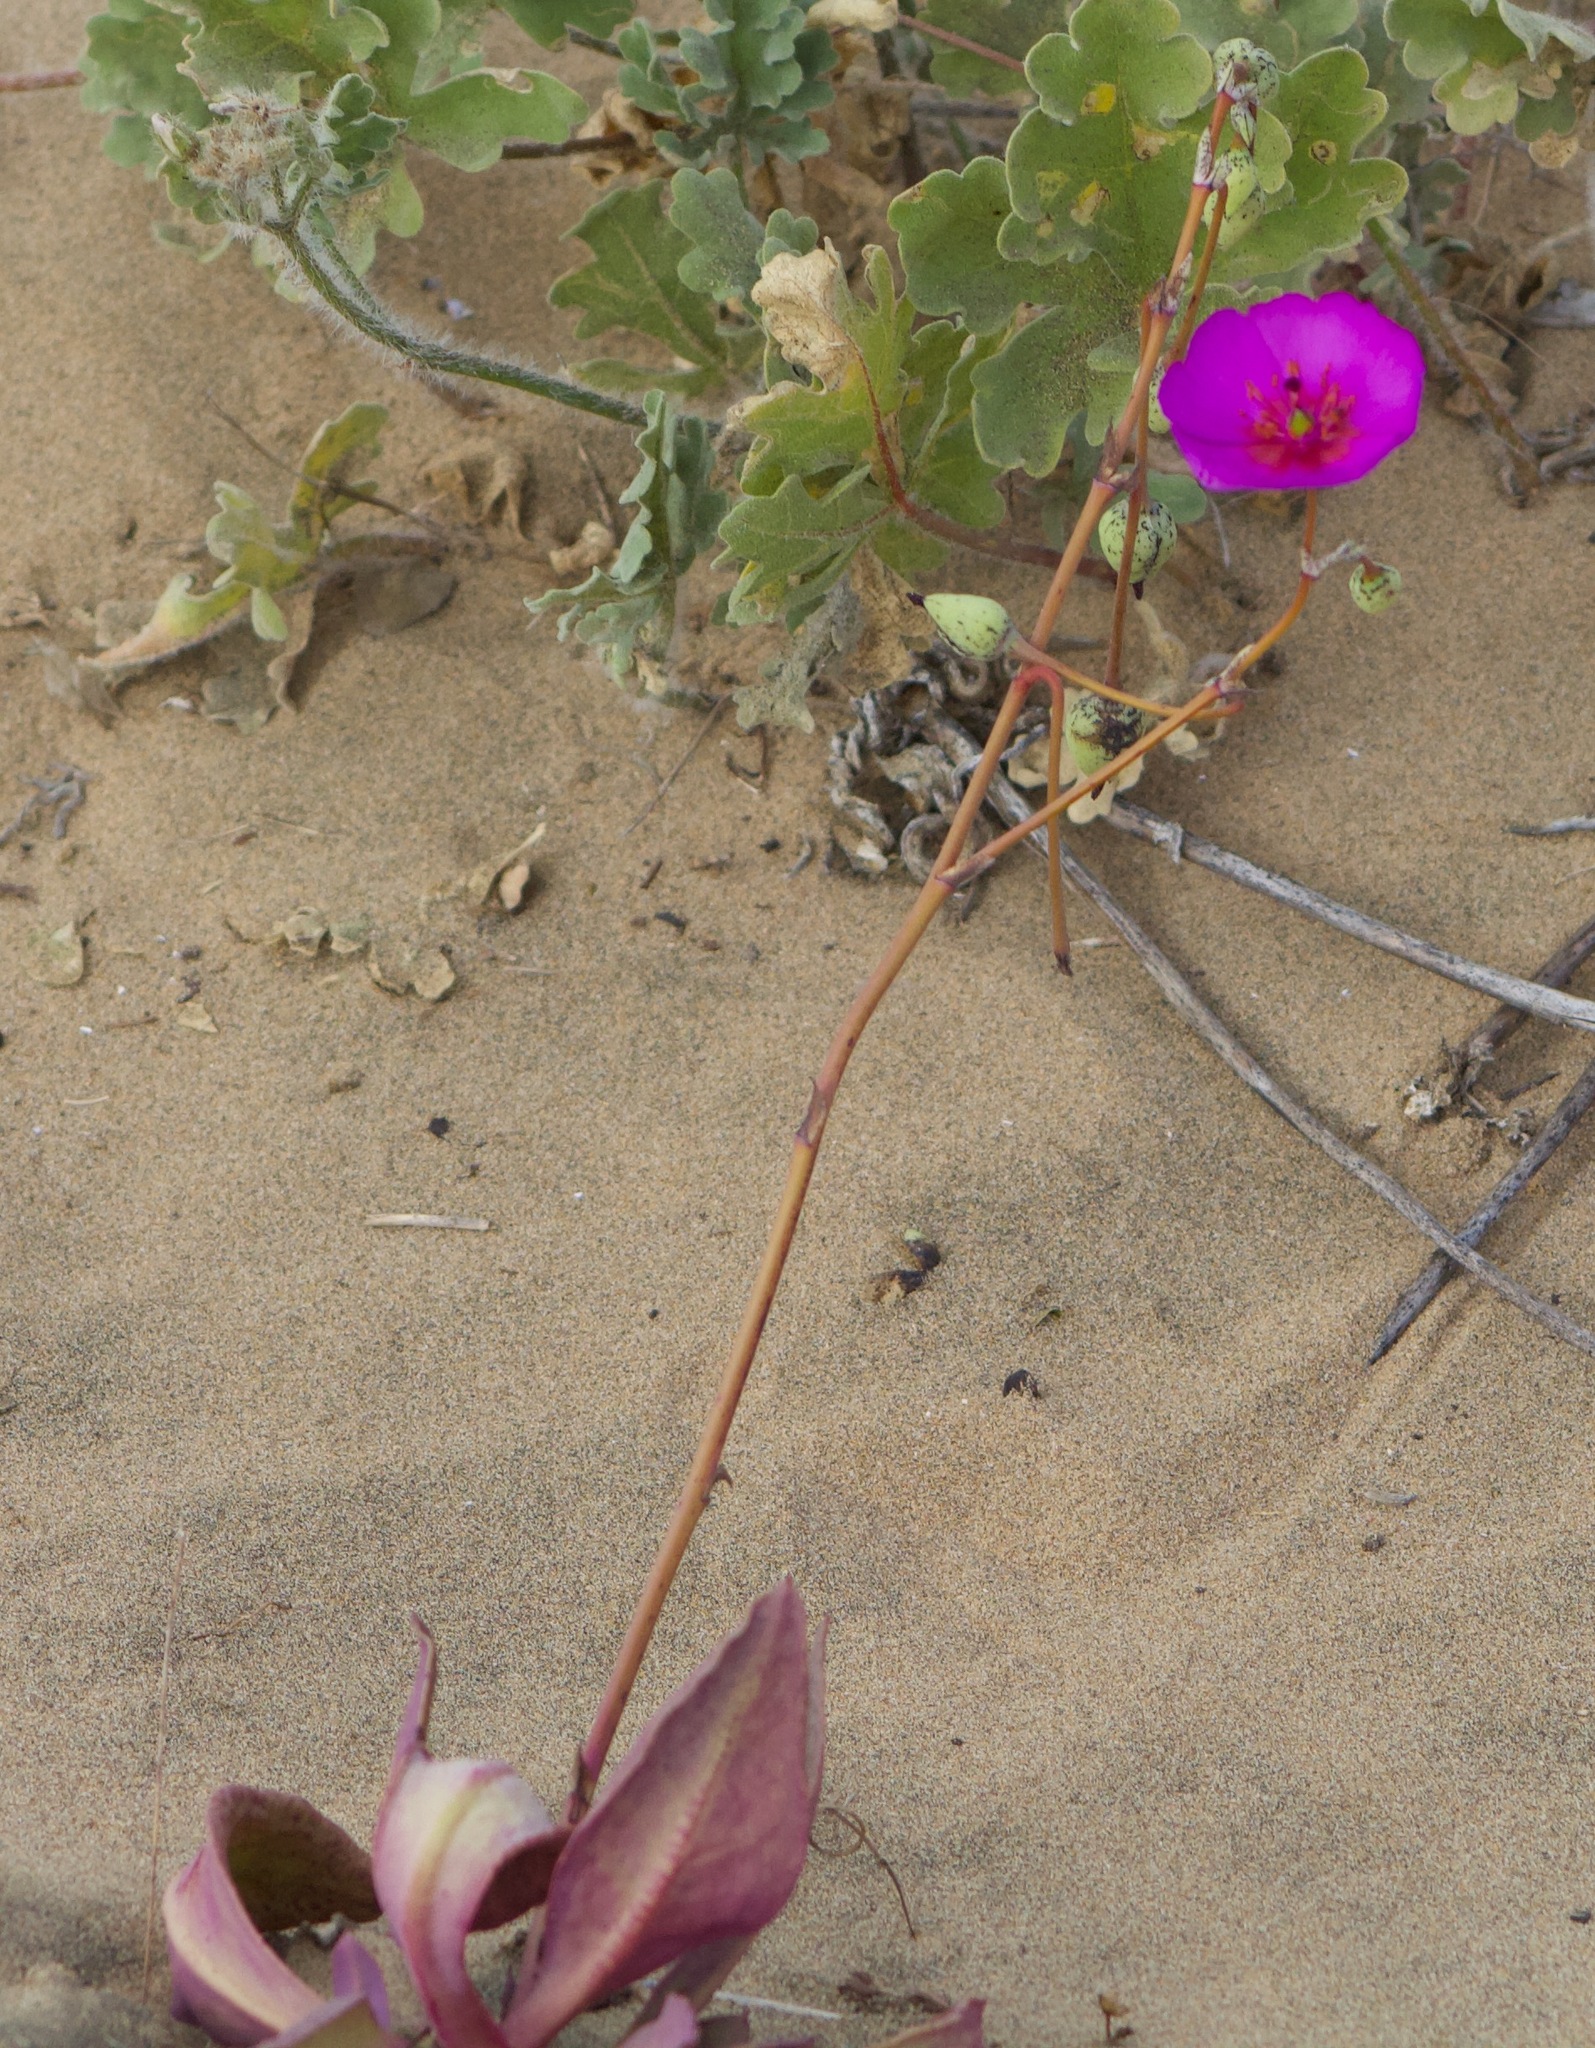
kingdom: Plantae
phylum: Tracheophyta
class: Magnoliopsida
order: Caryophyllales
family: Montiaceae
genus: Cistanthe
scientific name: Cistanthe grandiflora
